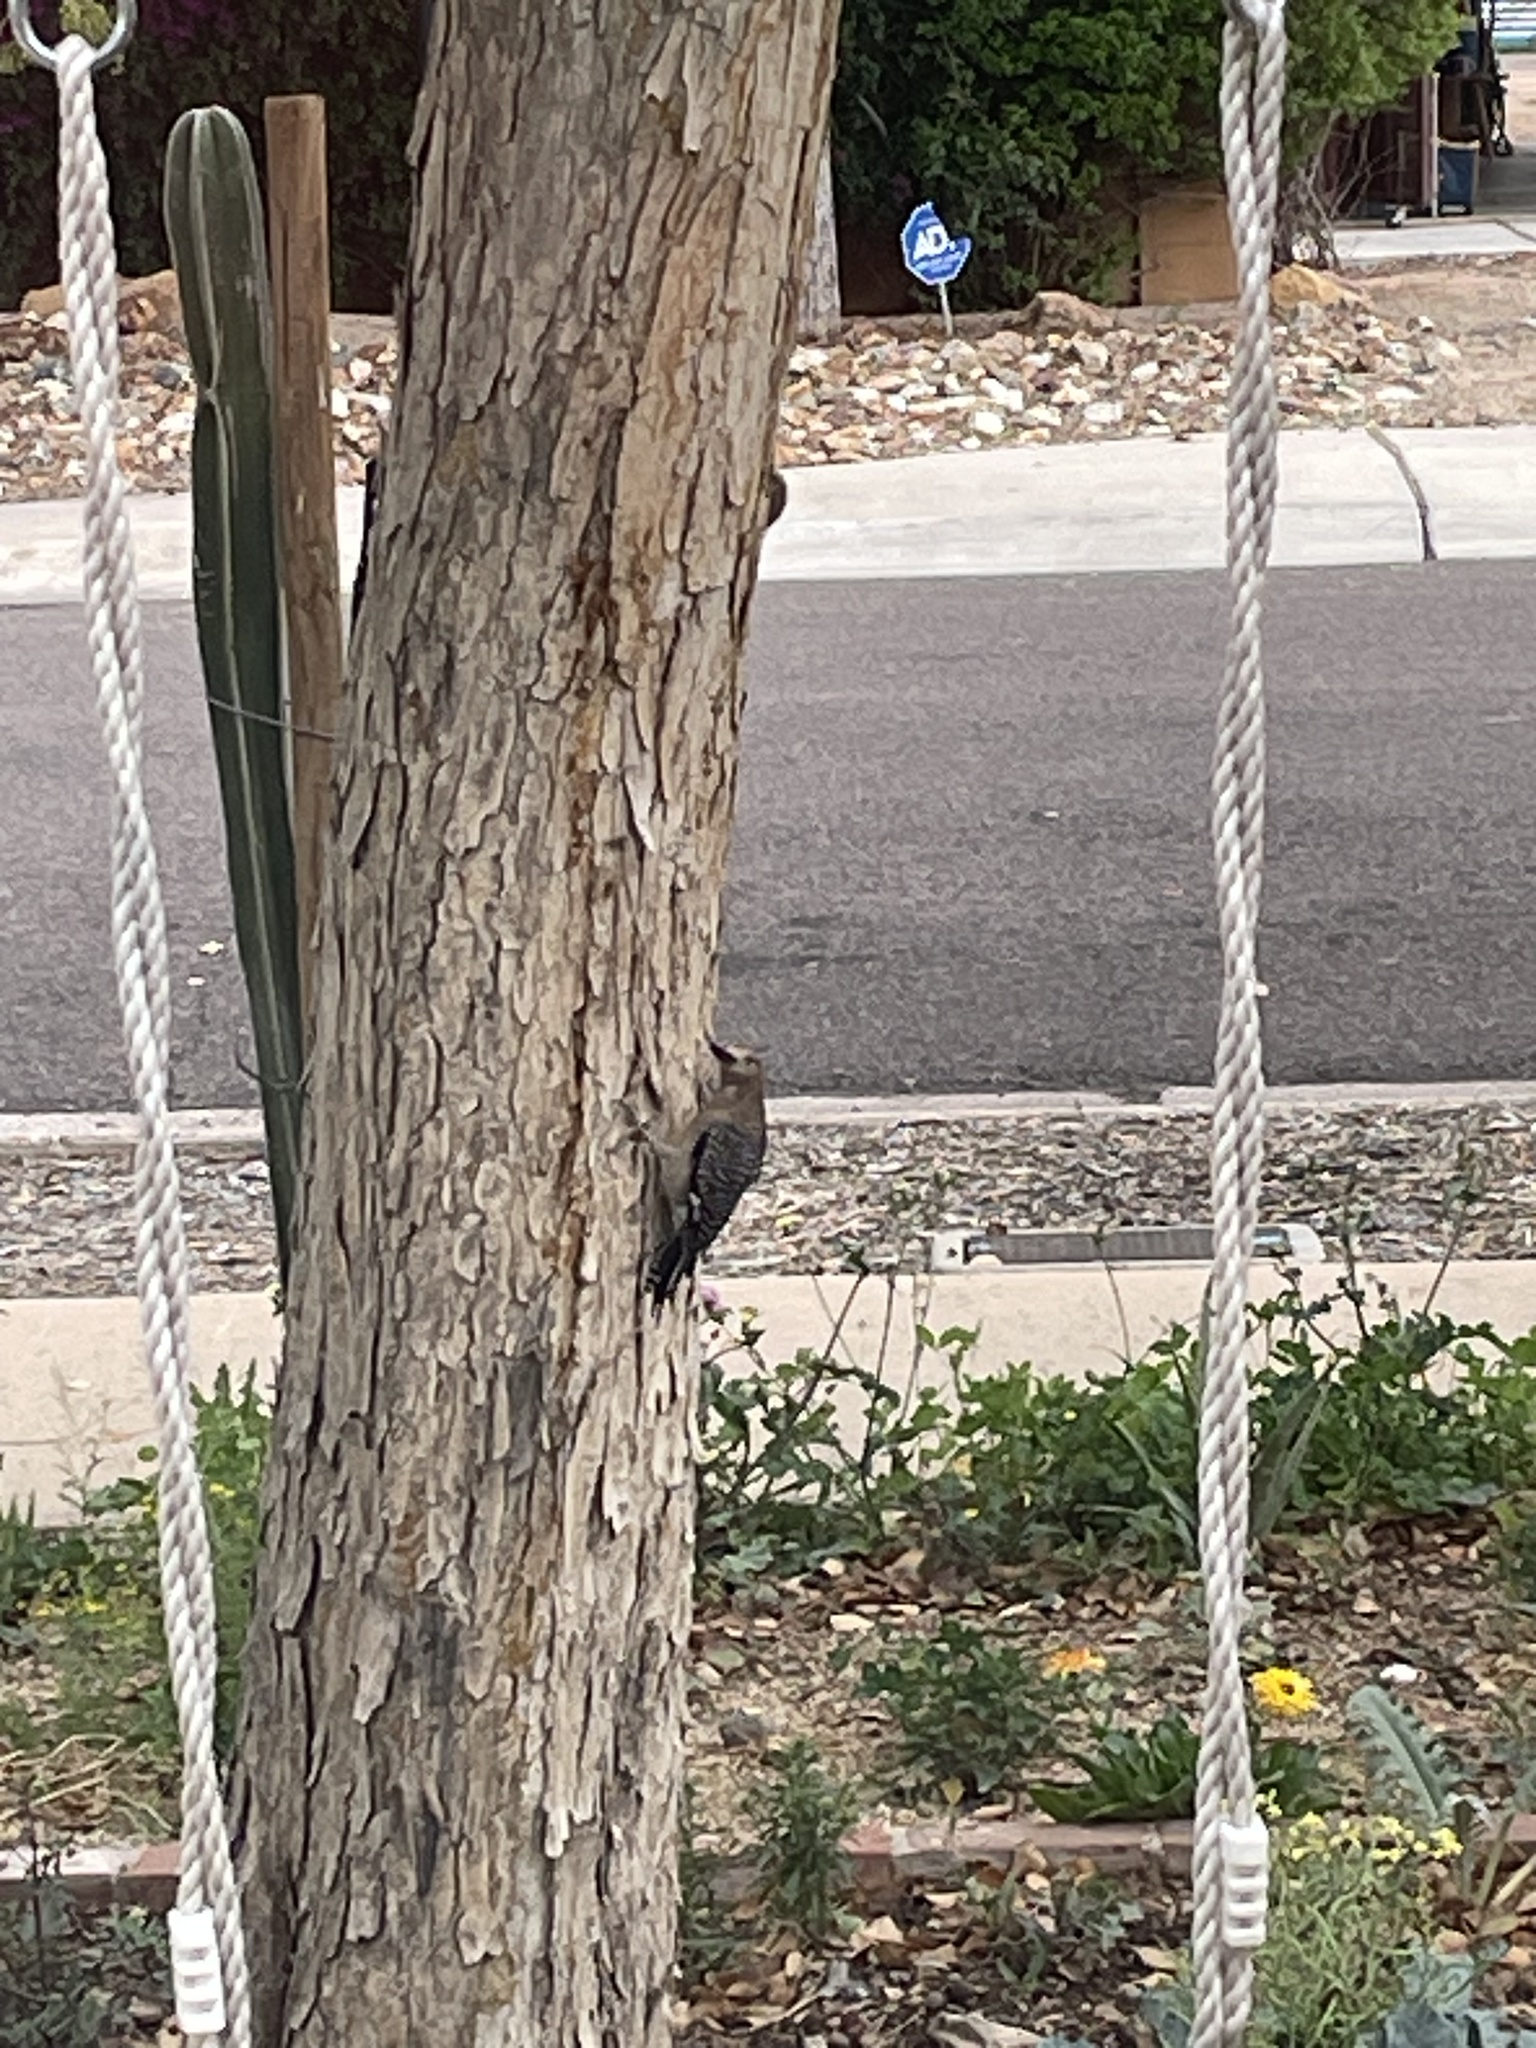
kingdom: Animalia
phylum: Chordata
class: Aves
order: Piciformes
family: Picidae
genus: Melanerpes
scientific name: Melanerpes uropygialis
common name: Gila woodpecker
